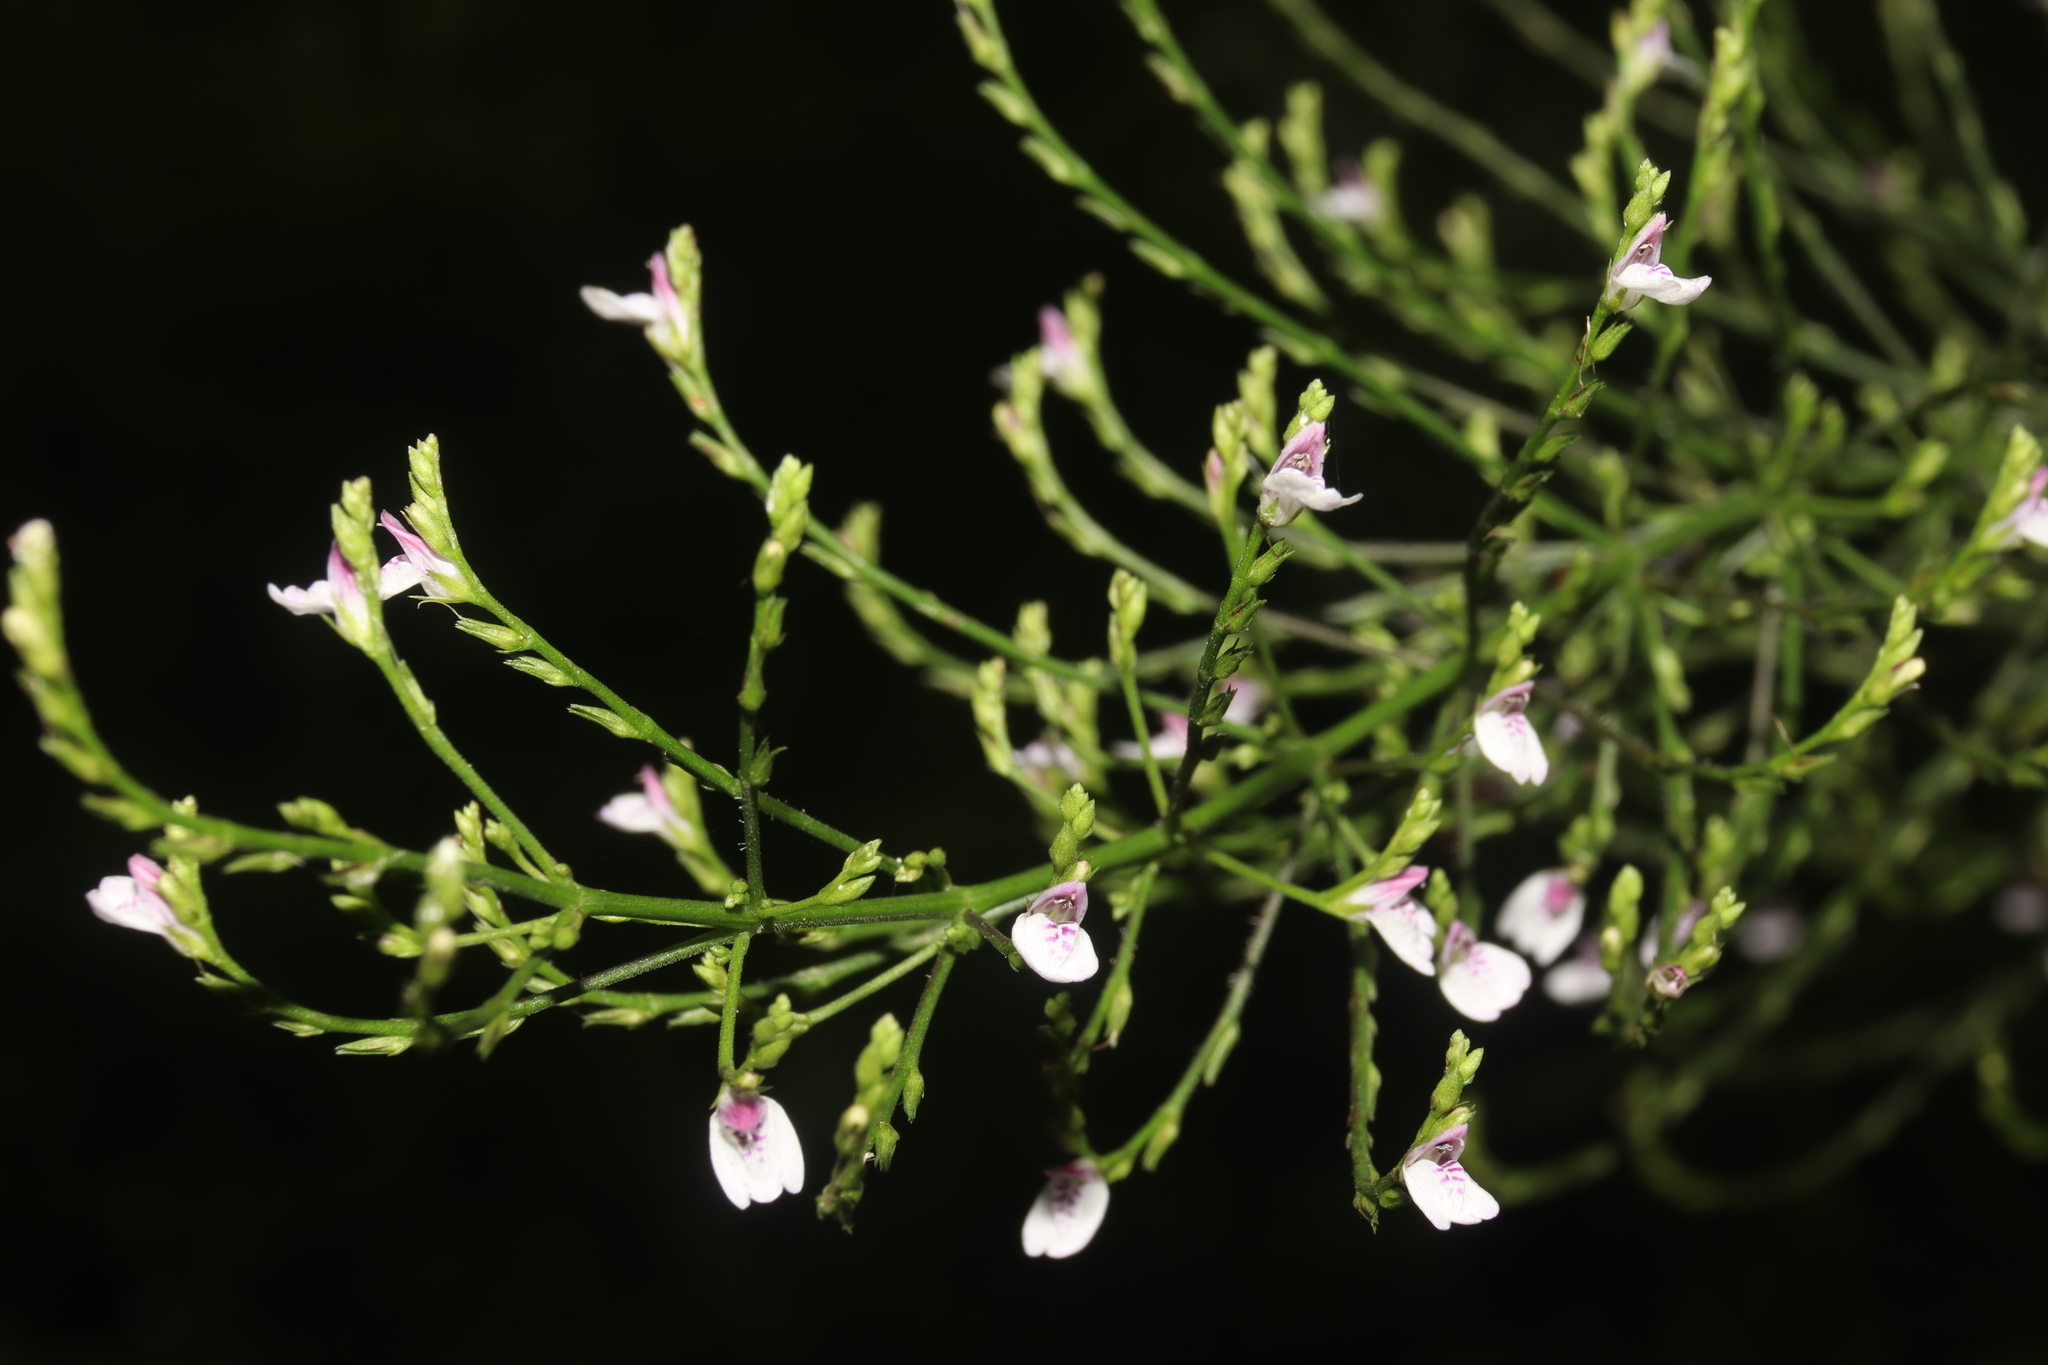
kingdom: Plantae
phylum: Tracheophyta
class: Magnoliopsida
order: Lamiales
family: Acanthaceae
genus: Justicia
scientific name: Justicia comata
